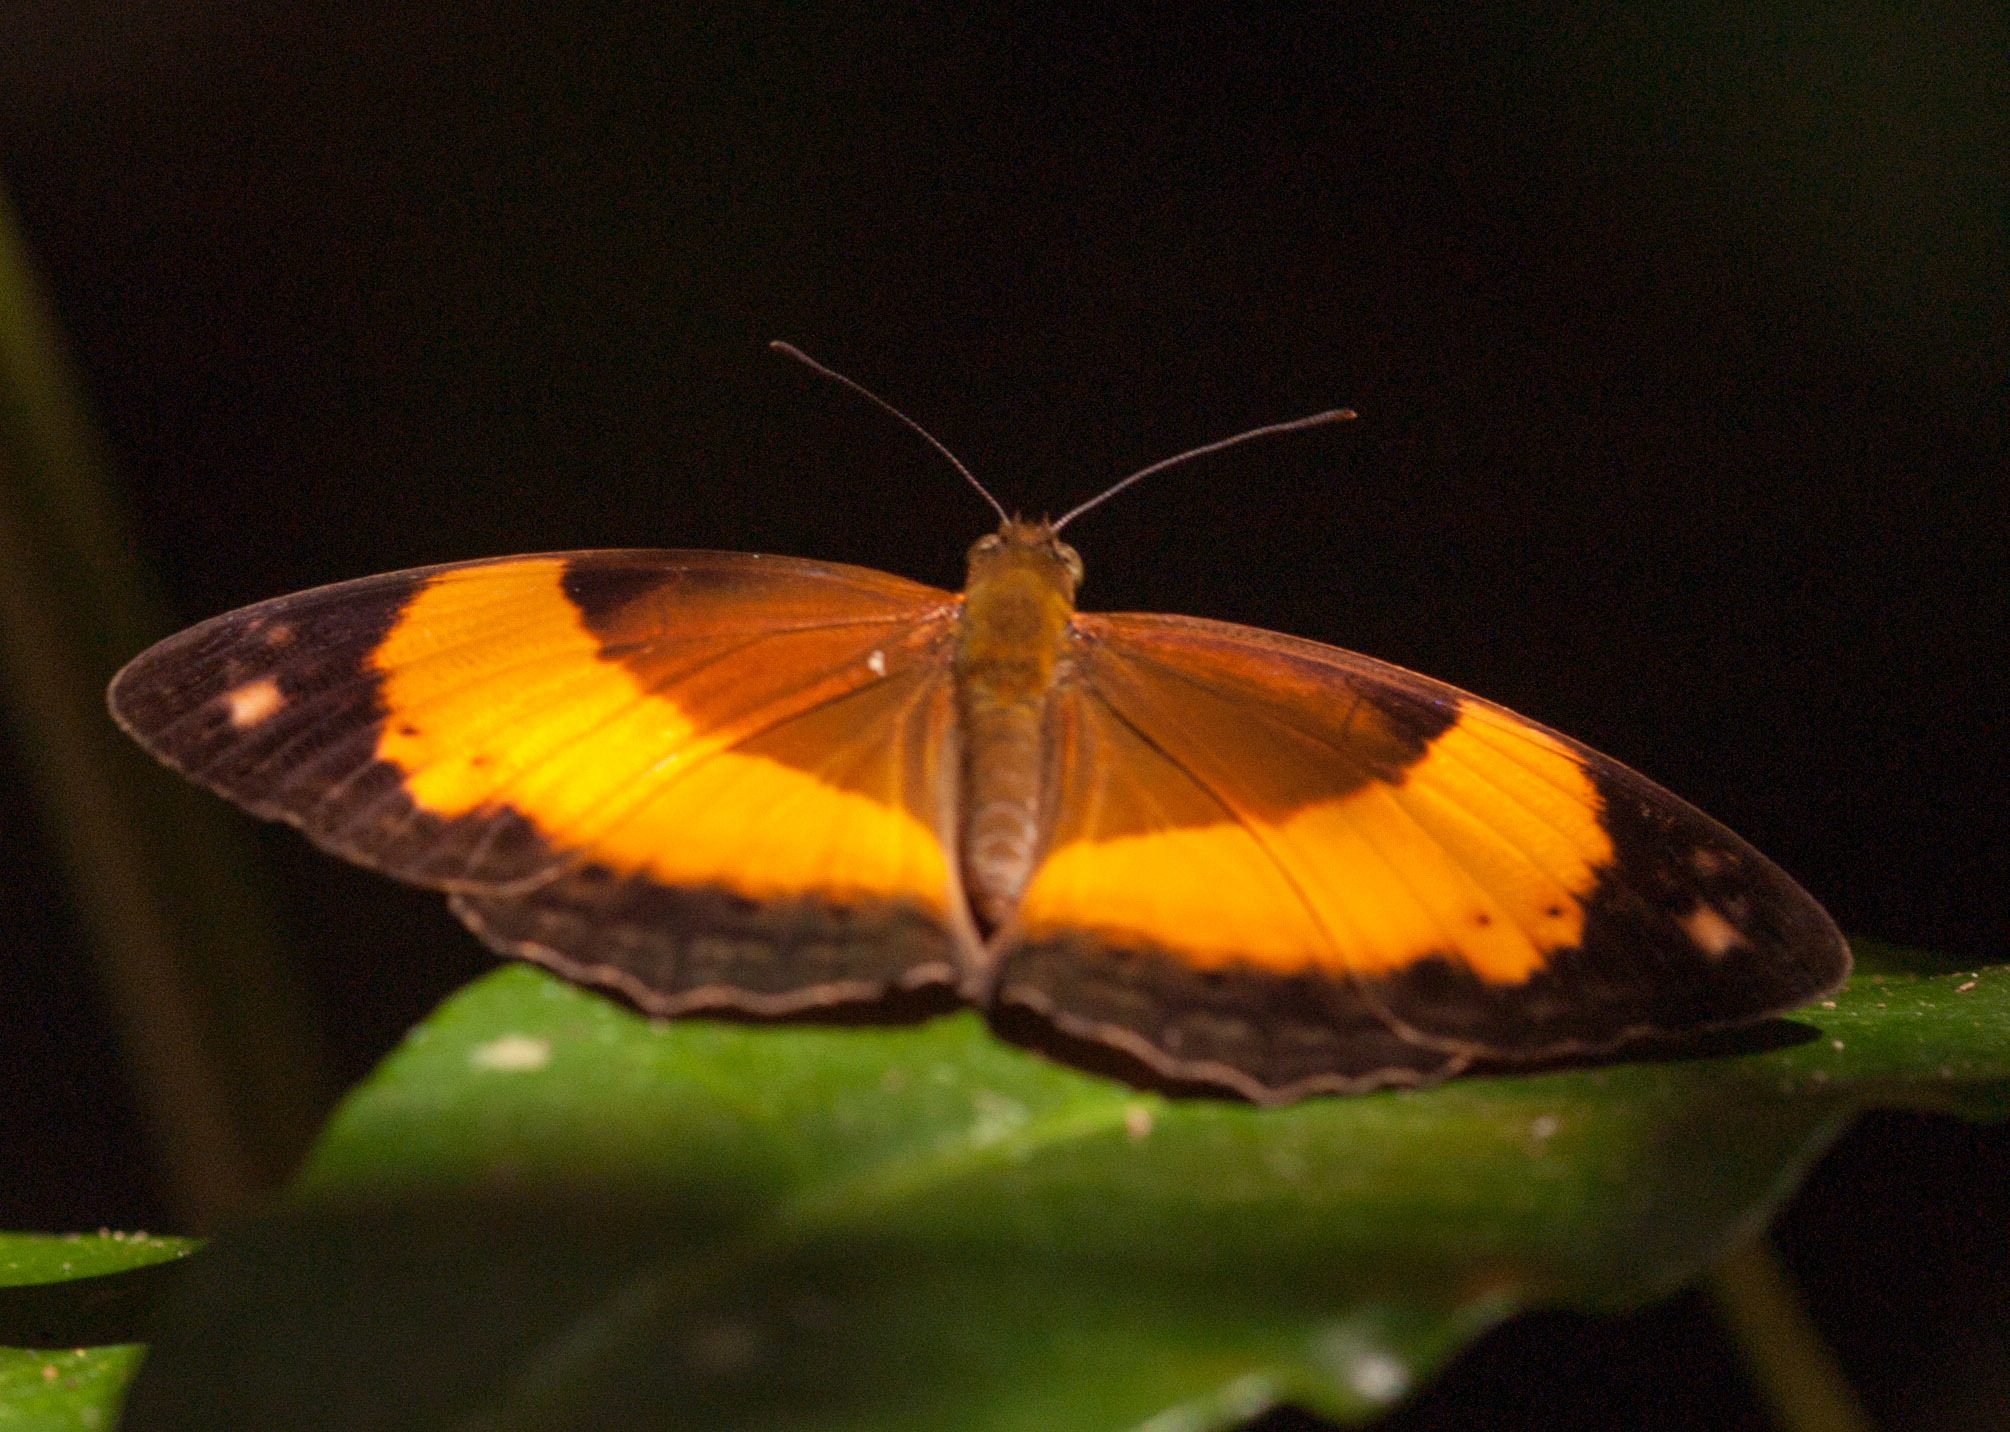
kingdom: Animalia
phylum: Arthropoda
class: Insecta
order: Lepidoptera
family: Nymphalidae
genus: Cupha
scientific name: Cupha prosope
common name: Bordered rustic
